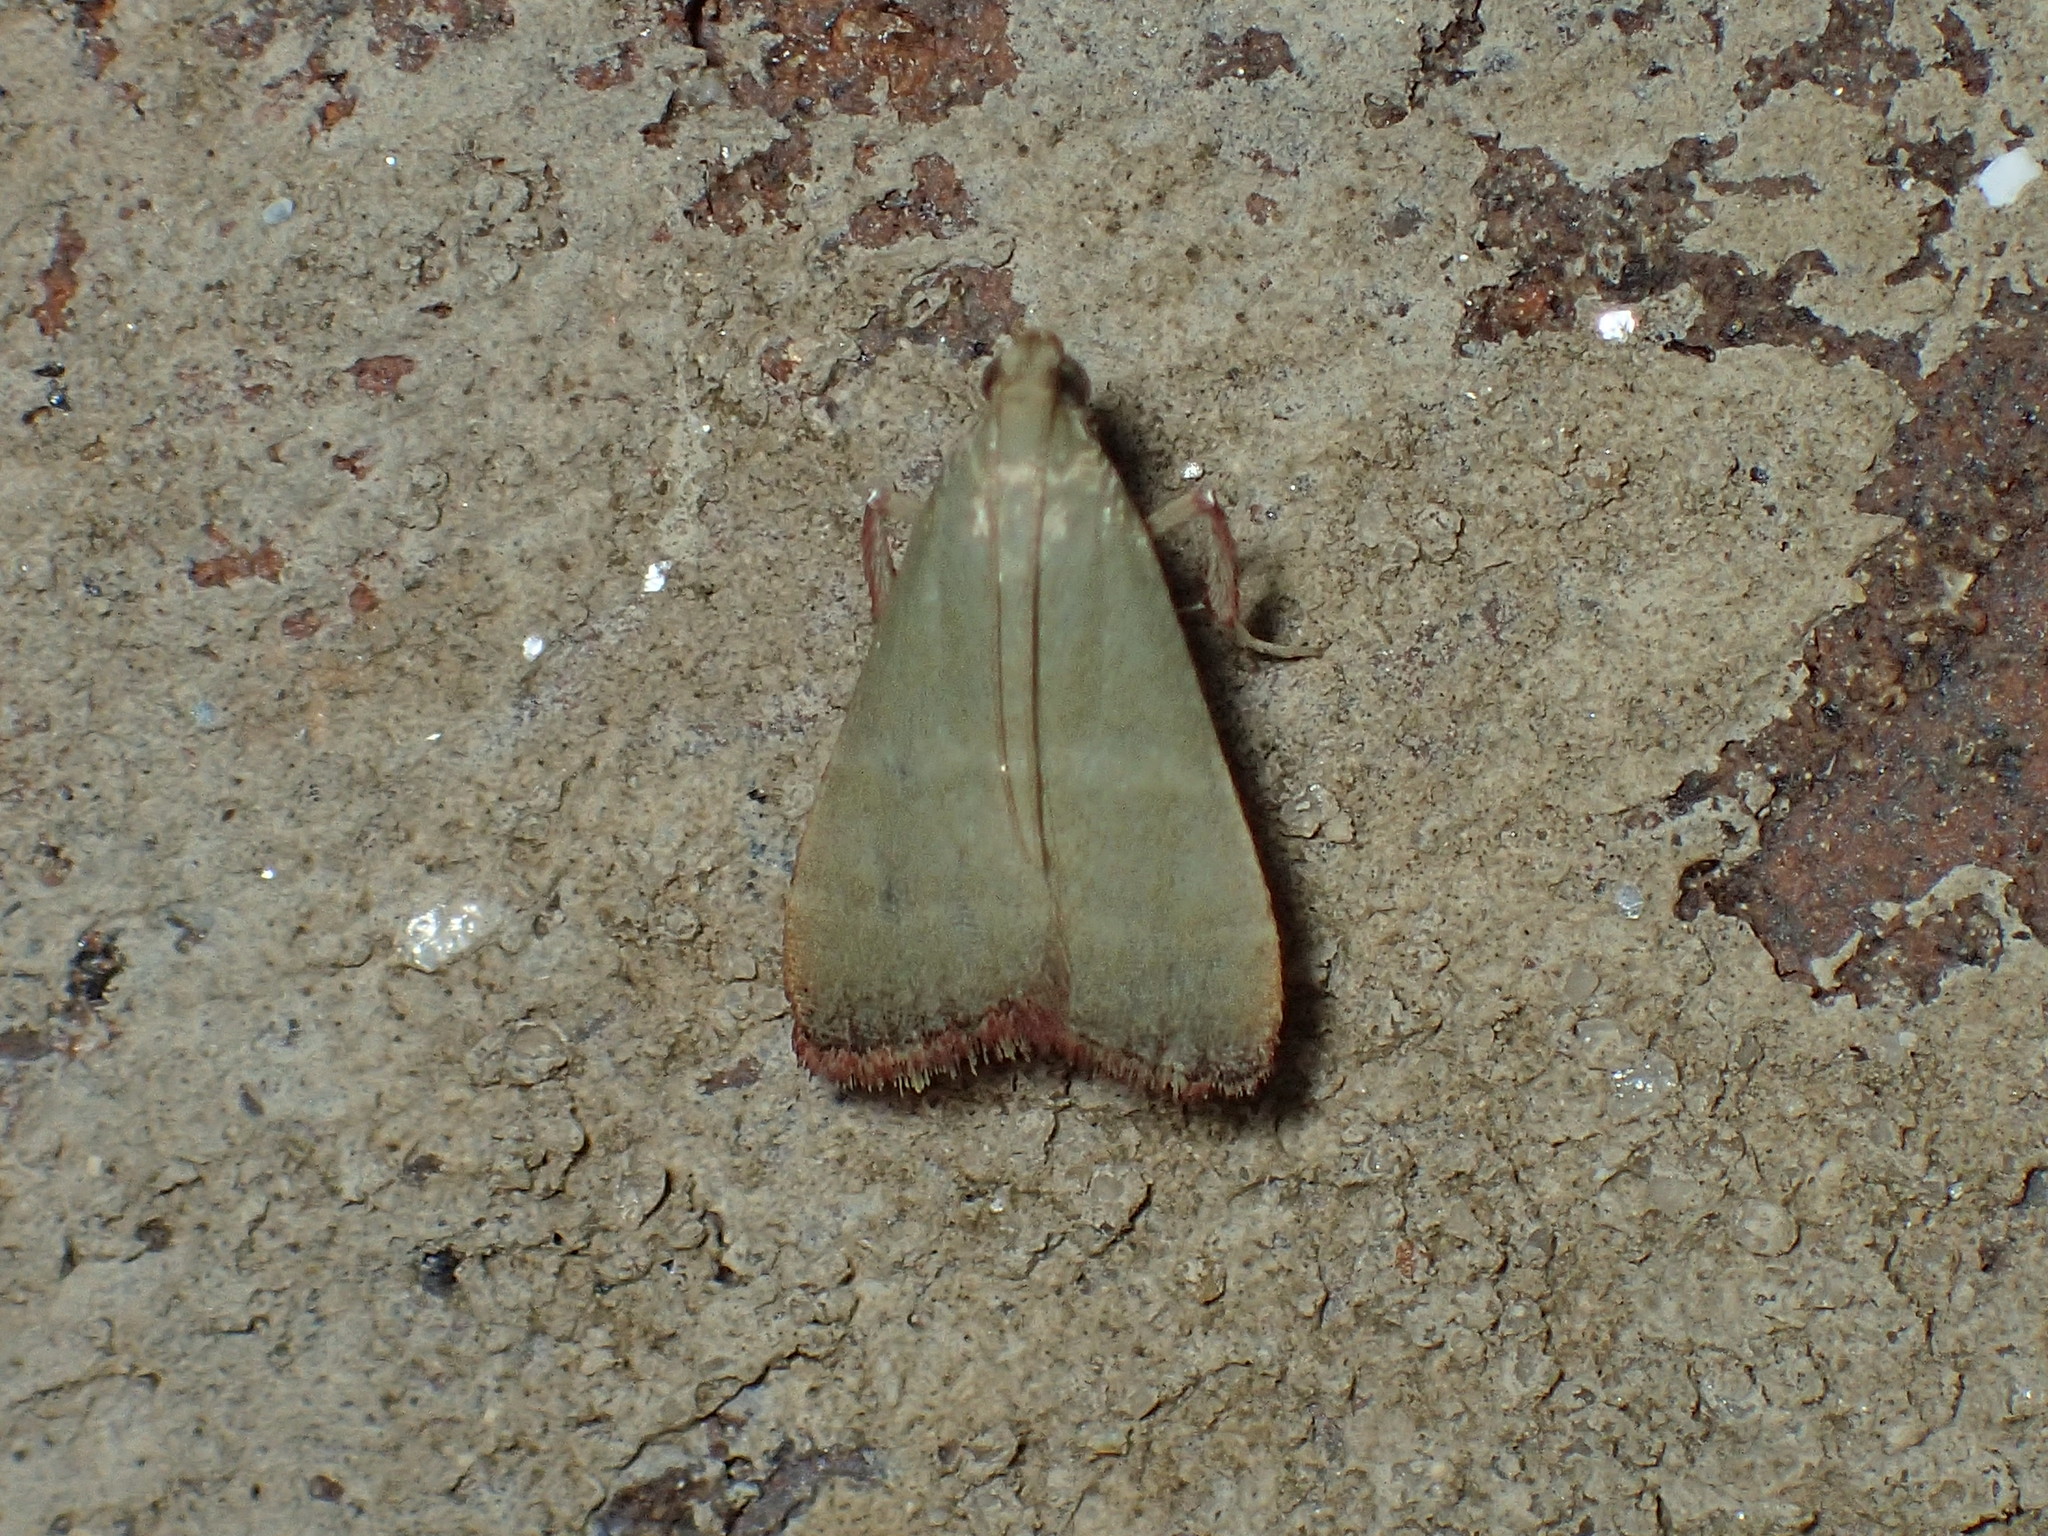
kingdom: Animalia
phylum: Arthropoda
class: Insecta
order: Lepidoptera
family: Pyralidae
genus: Arta
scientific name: Arta olivalis
